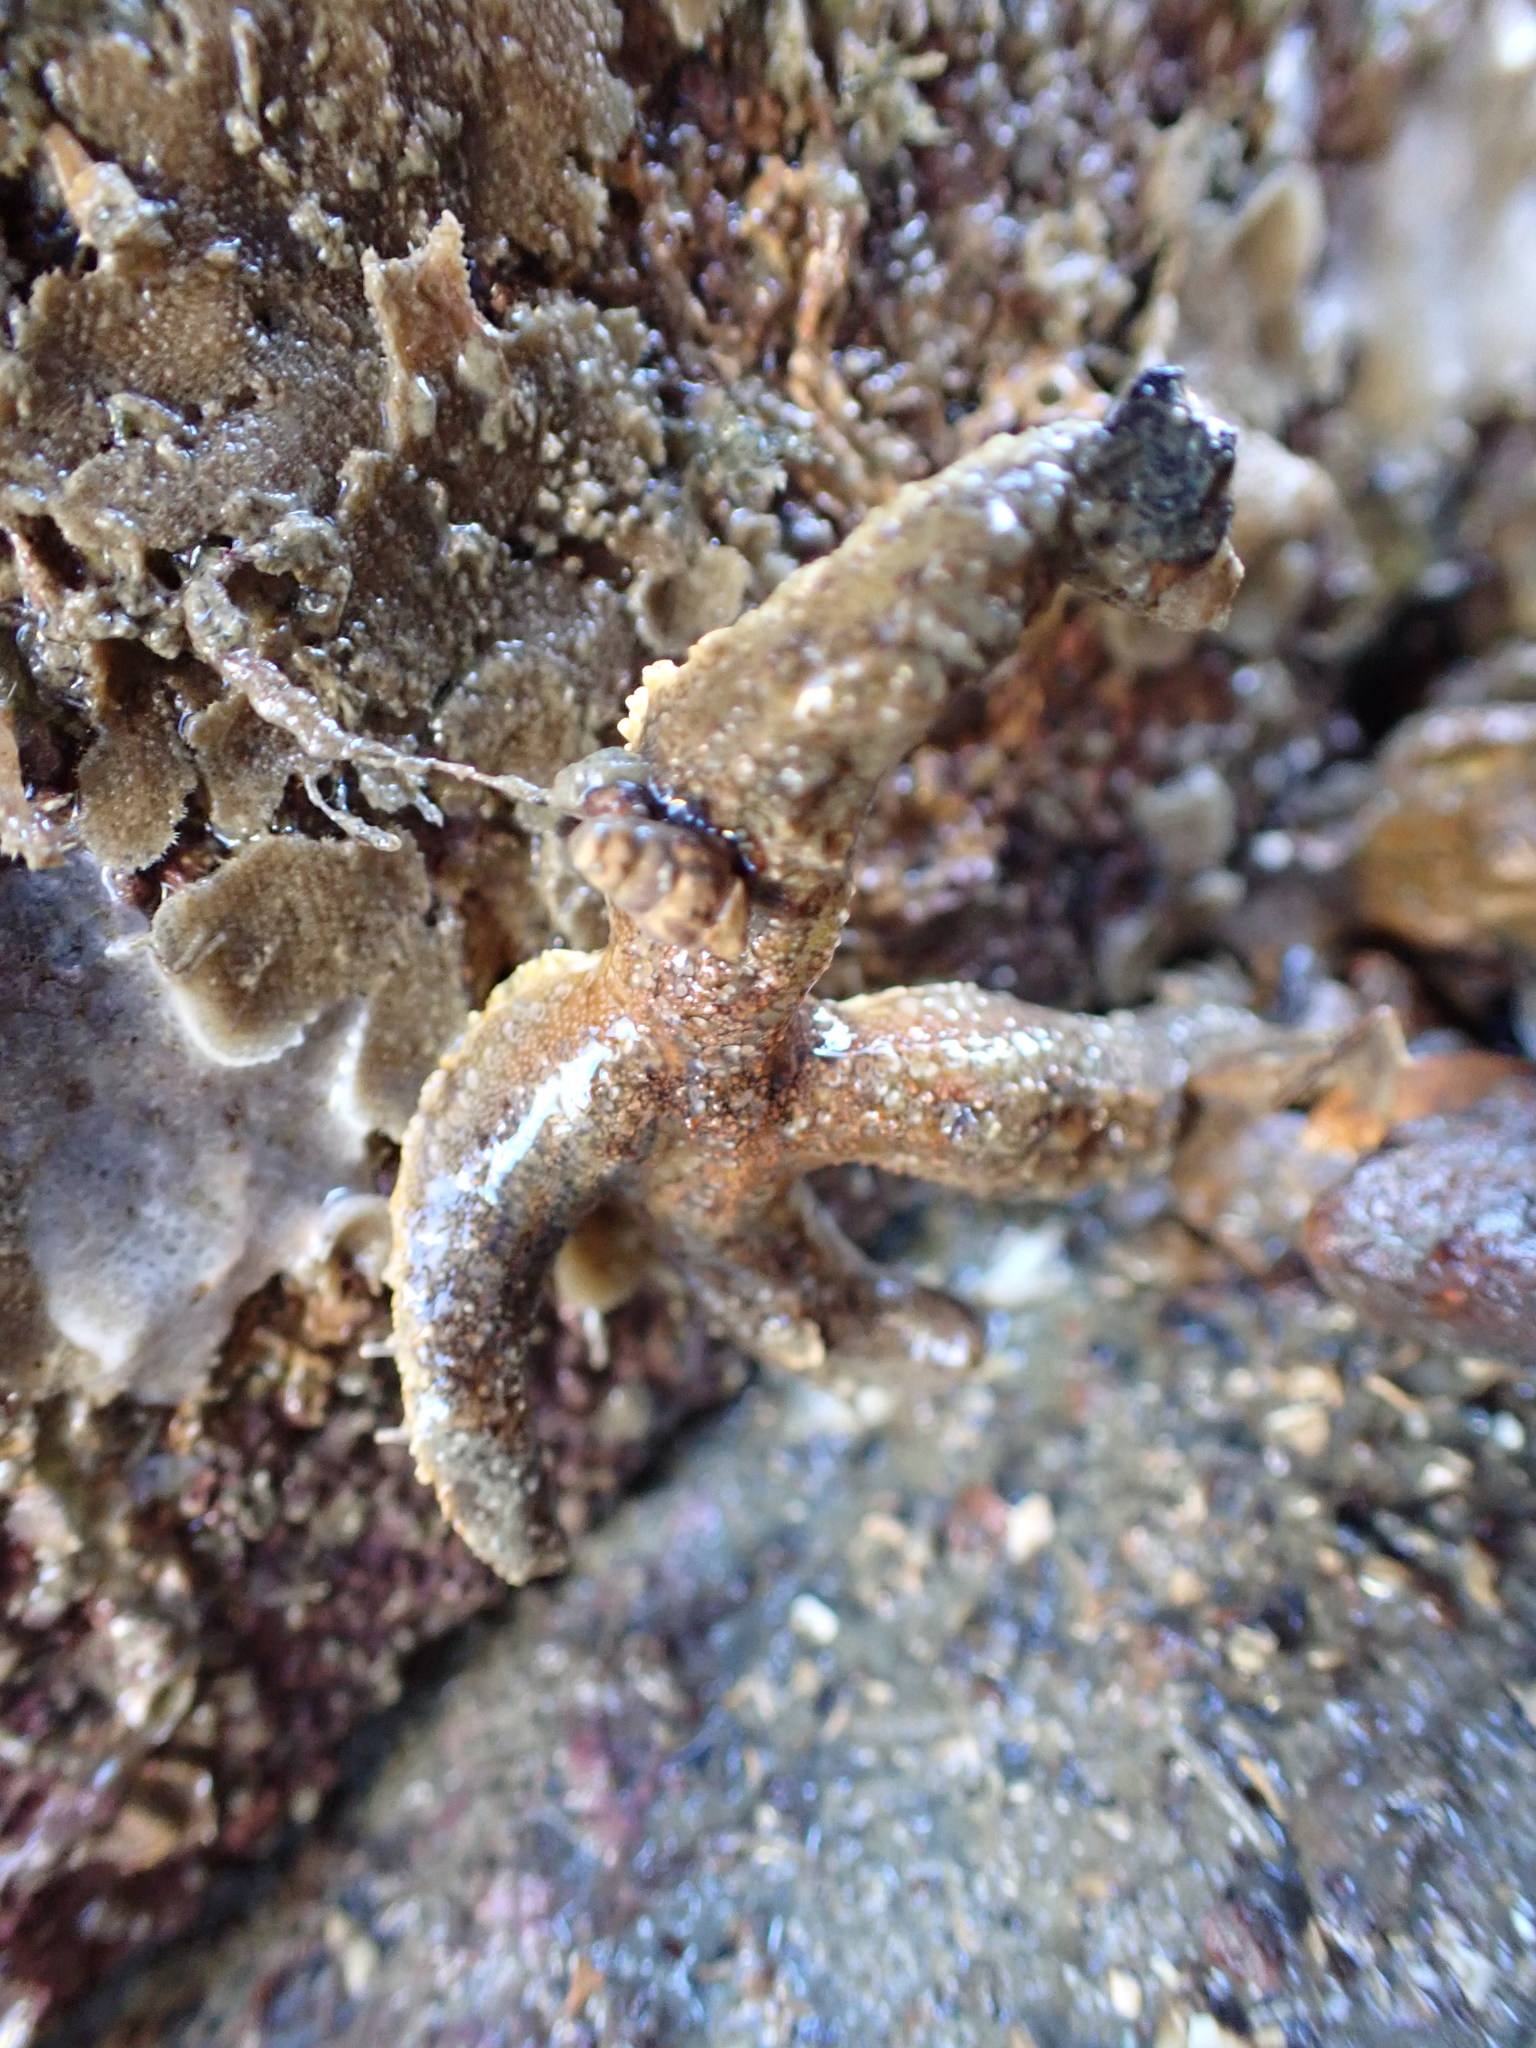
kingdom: Animalia
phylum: Echinodermata
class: Asteroidea
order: Forcipulatida
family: Stichasteridae
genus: Allostichaster
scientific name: Allostichaster polyplax
